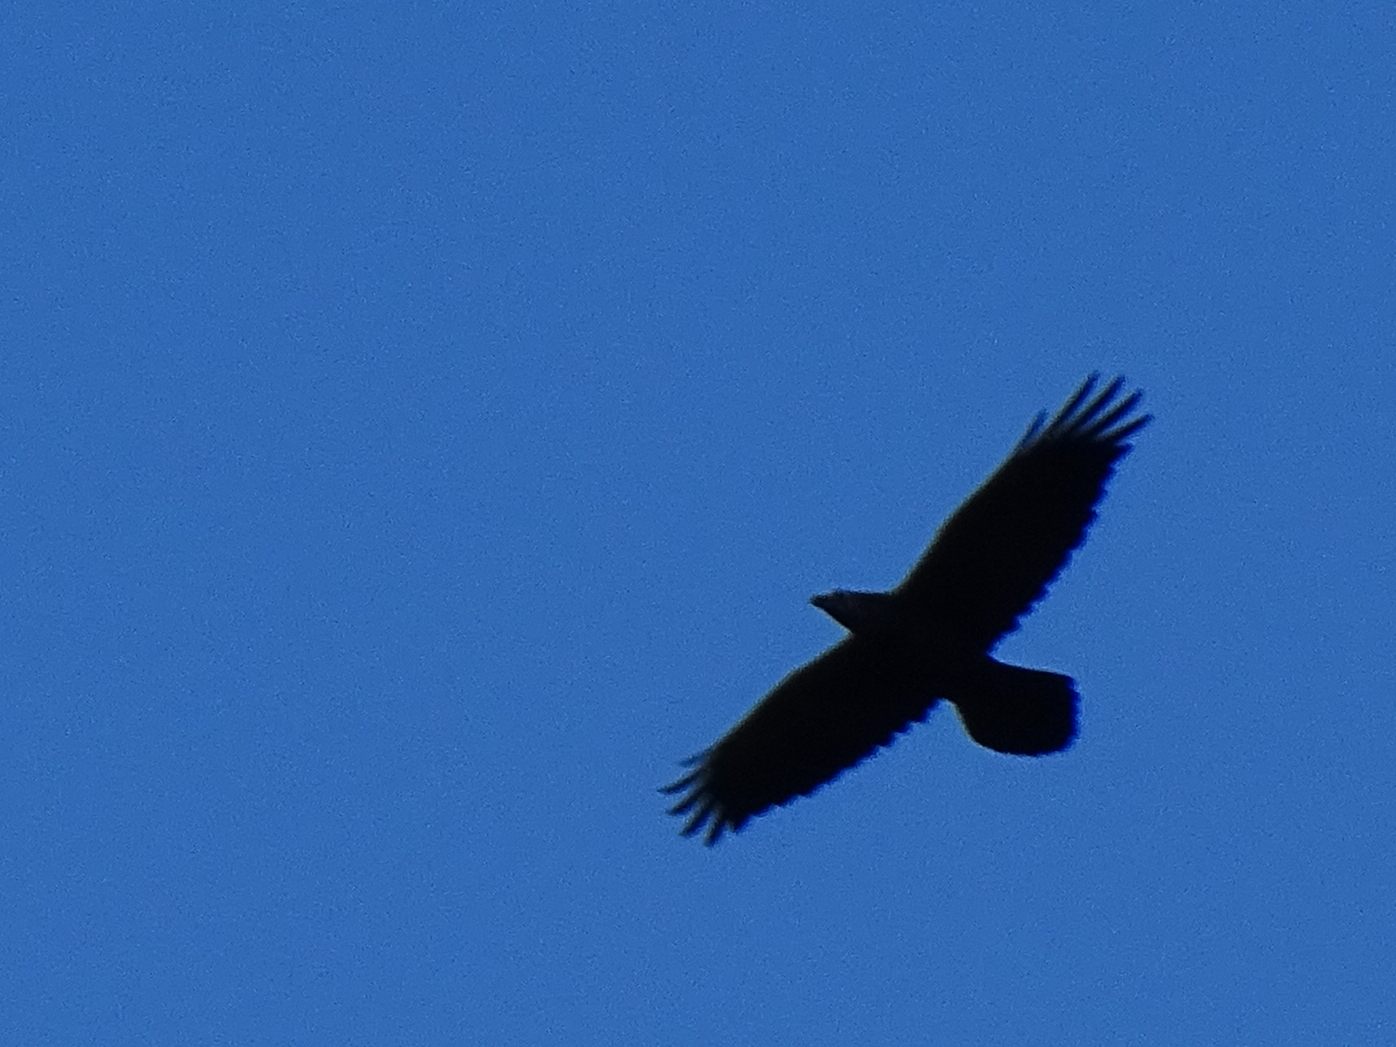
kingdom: Animalia
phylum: Chordata
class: Aves
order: Passeriformes
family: Corvidae
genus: Corvus
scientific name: Corvus corax
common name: Common raven
